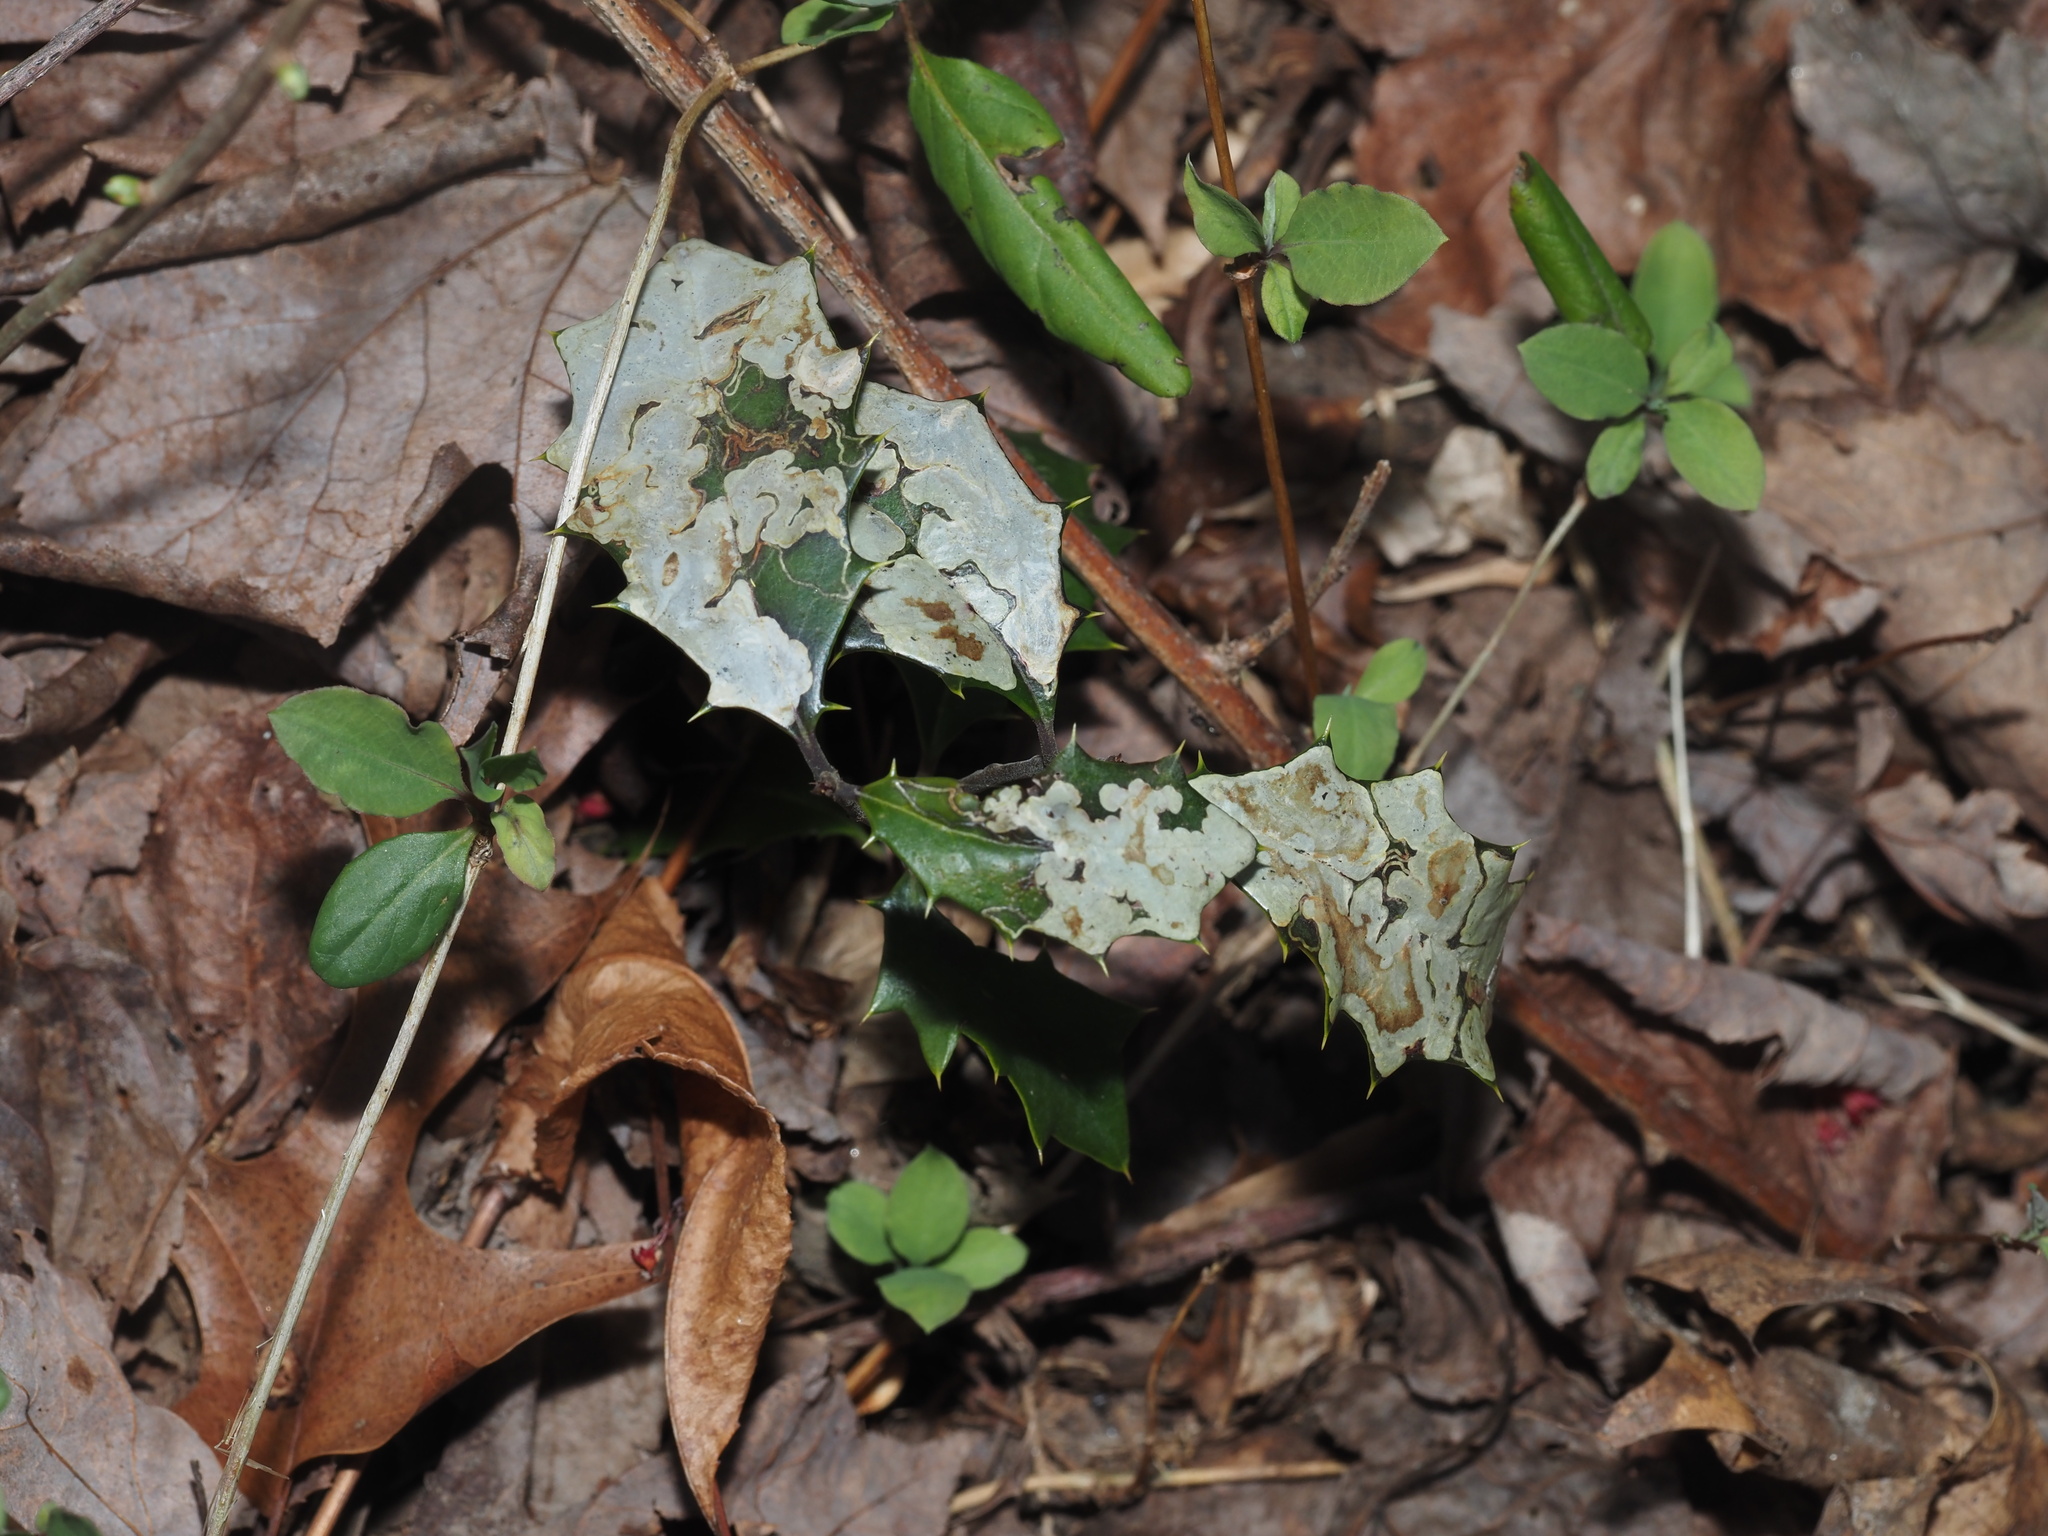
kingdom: Animalia
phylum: Arthropoda
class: Insecta
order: Diptera
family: Agromyzidae
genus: Phytomyza
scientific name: Phytomyza ilicicola
